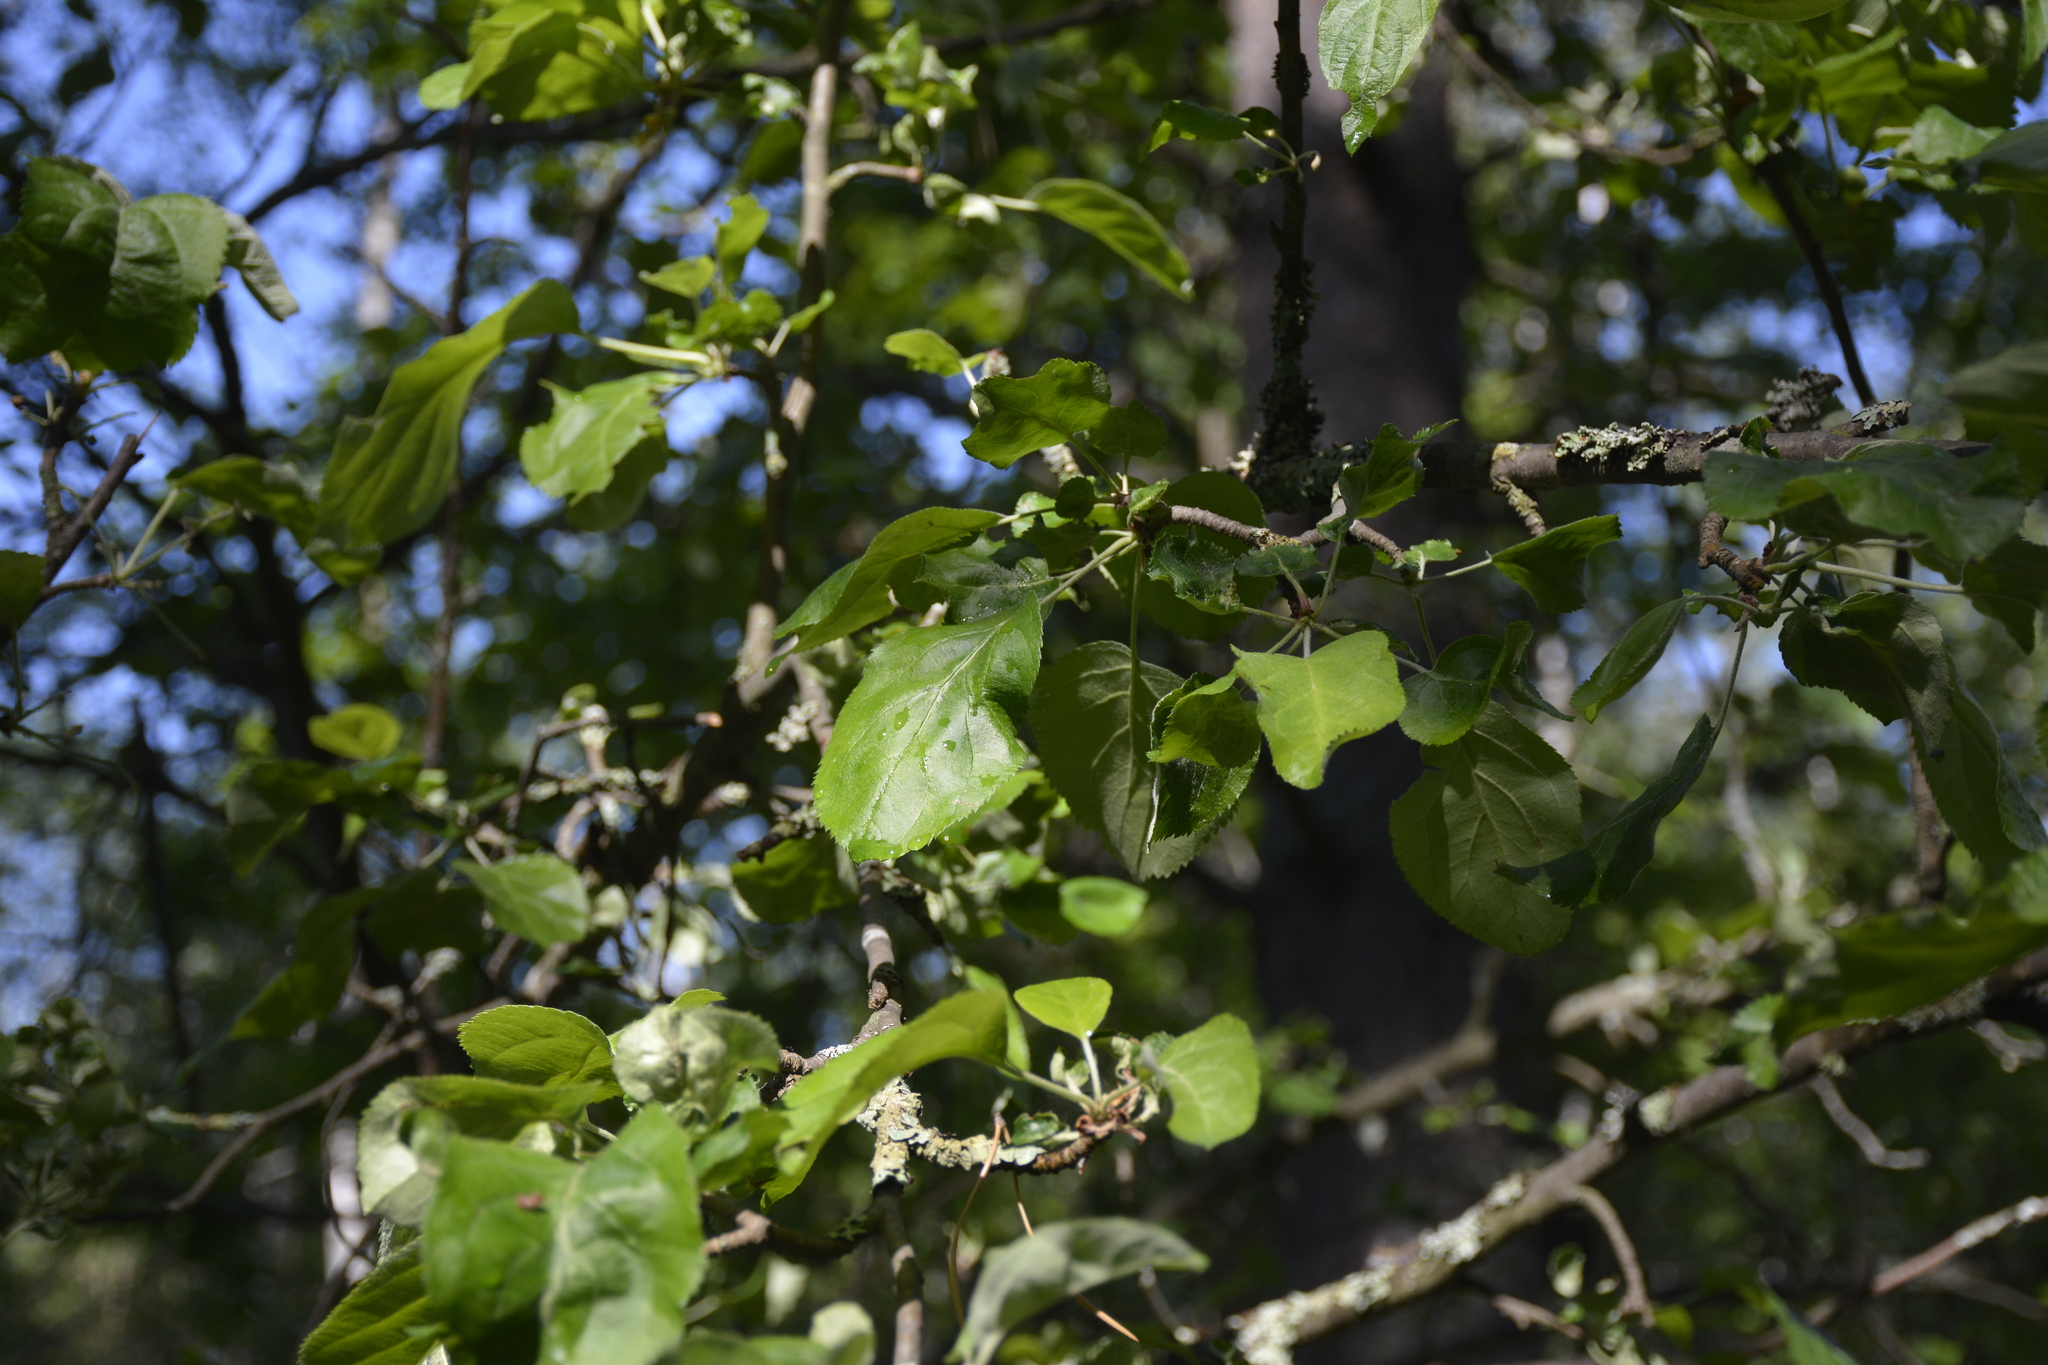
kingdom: Plantae
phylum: Tracheophyta
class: Magnoliopsida
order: Rosales
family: Rosaceae
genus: Malus
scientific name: Malus domestica
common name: Apple
